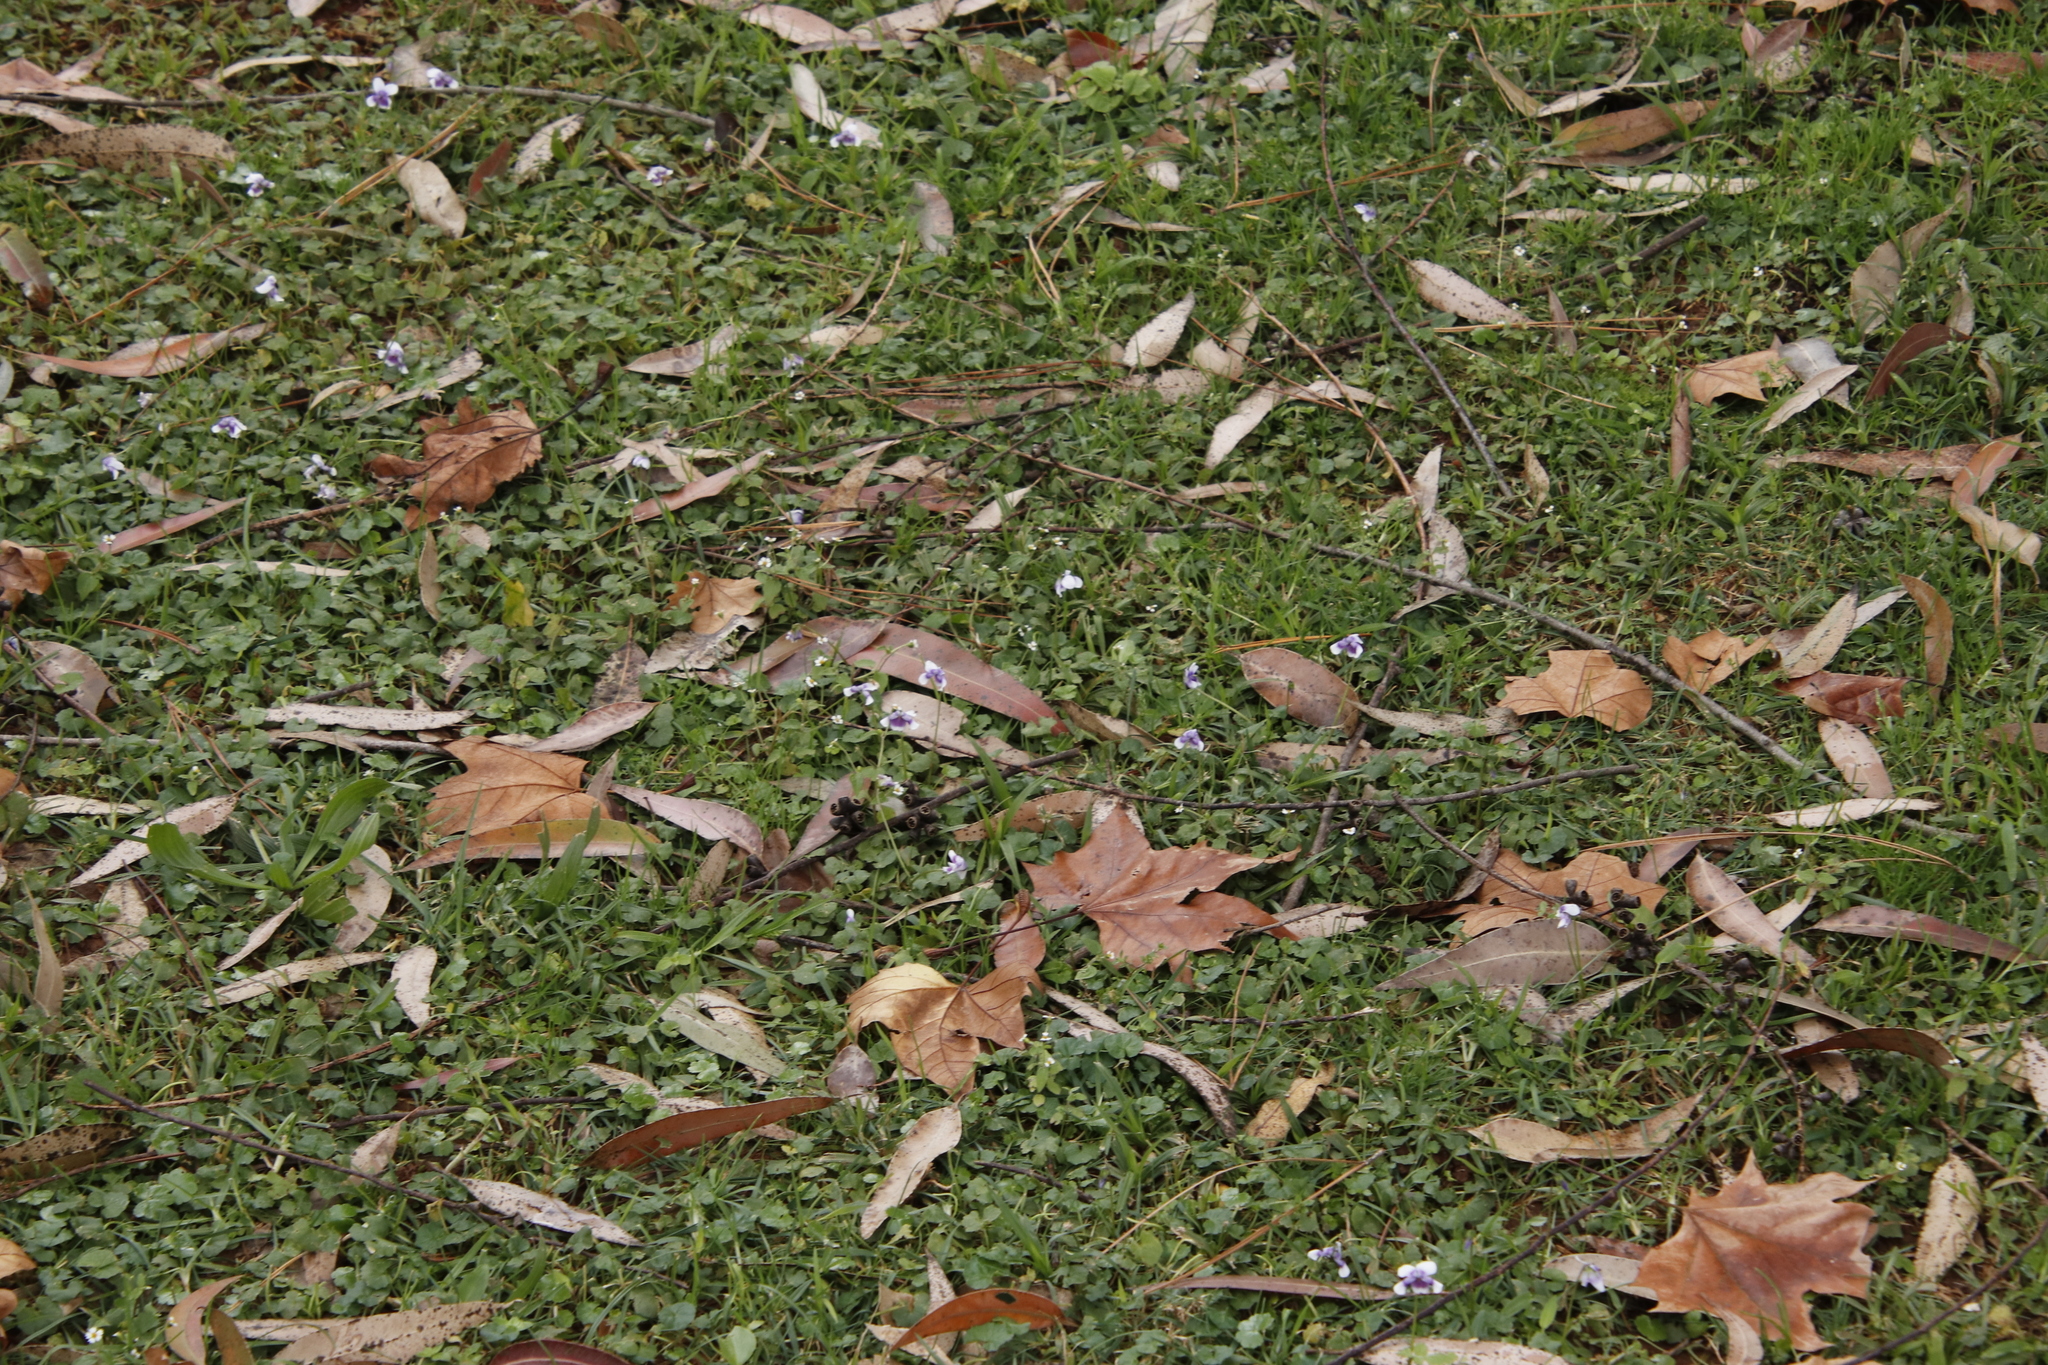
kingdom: Plantae
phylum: Tracheophyta
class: Magnoliopsida
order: Malpighiales
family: Violaceae
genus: Viola
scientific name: Viola banksii
